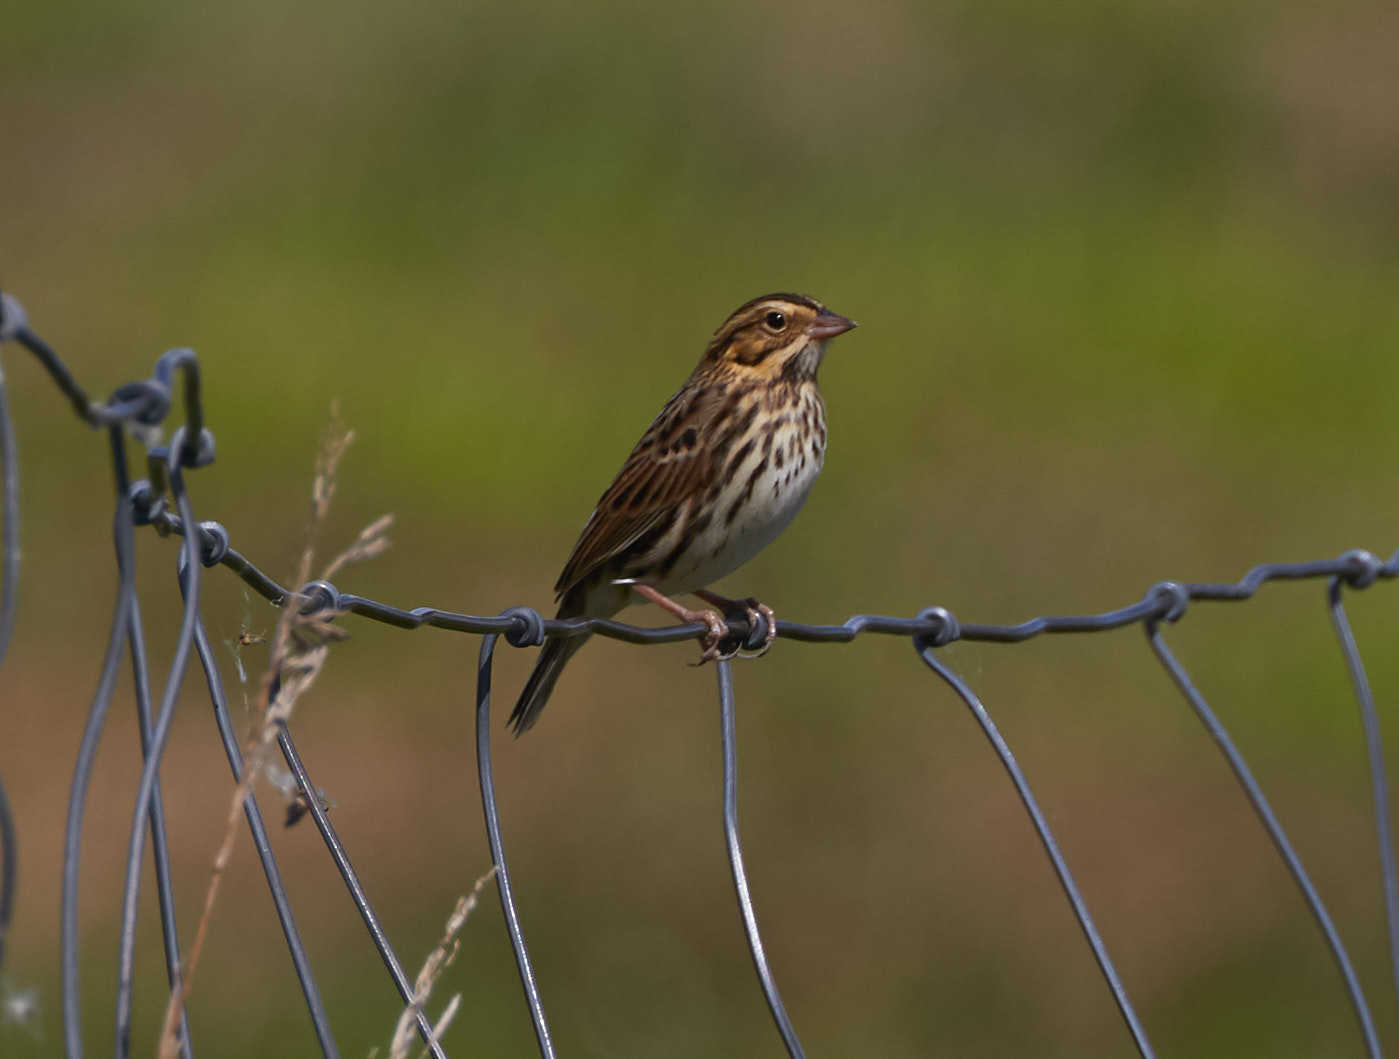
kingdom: Animalia
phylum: Chordata
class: Aves
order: Passeriformes
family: Passerellidae
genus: Passerculus
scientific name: Passerculus sandwichensis
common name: Savannah sparrow
